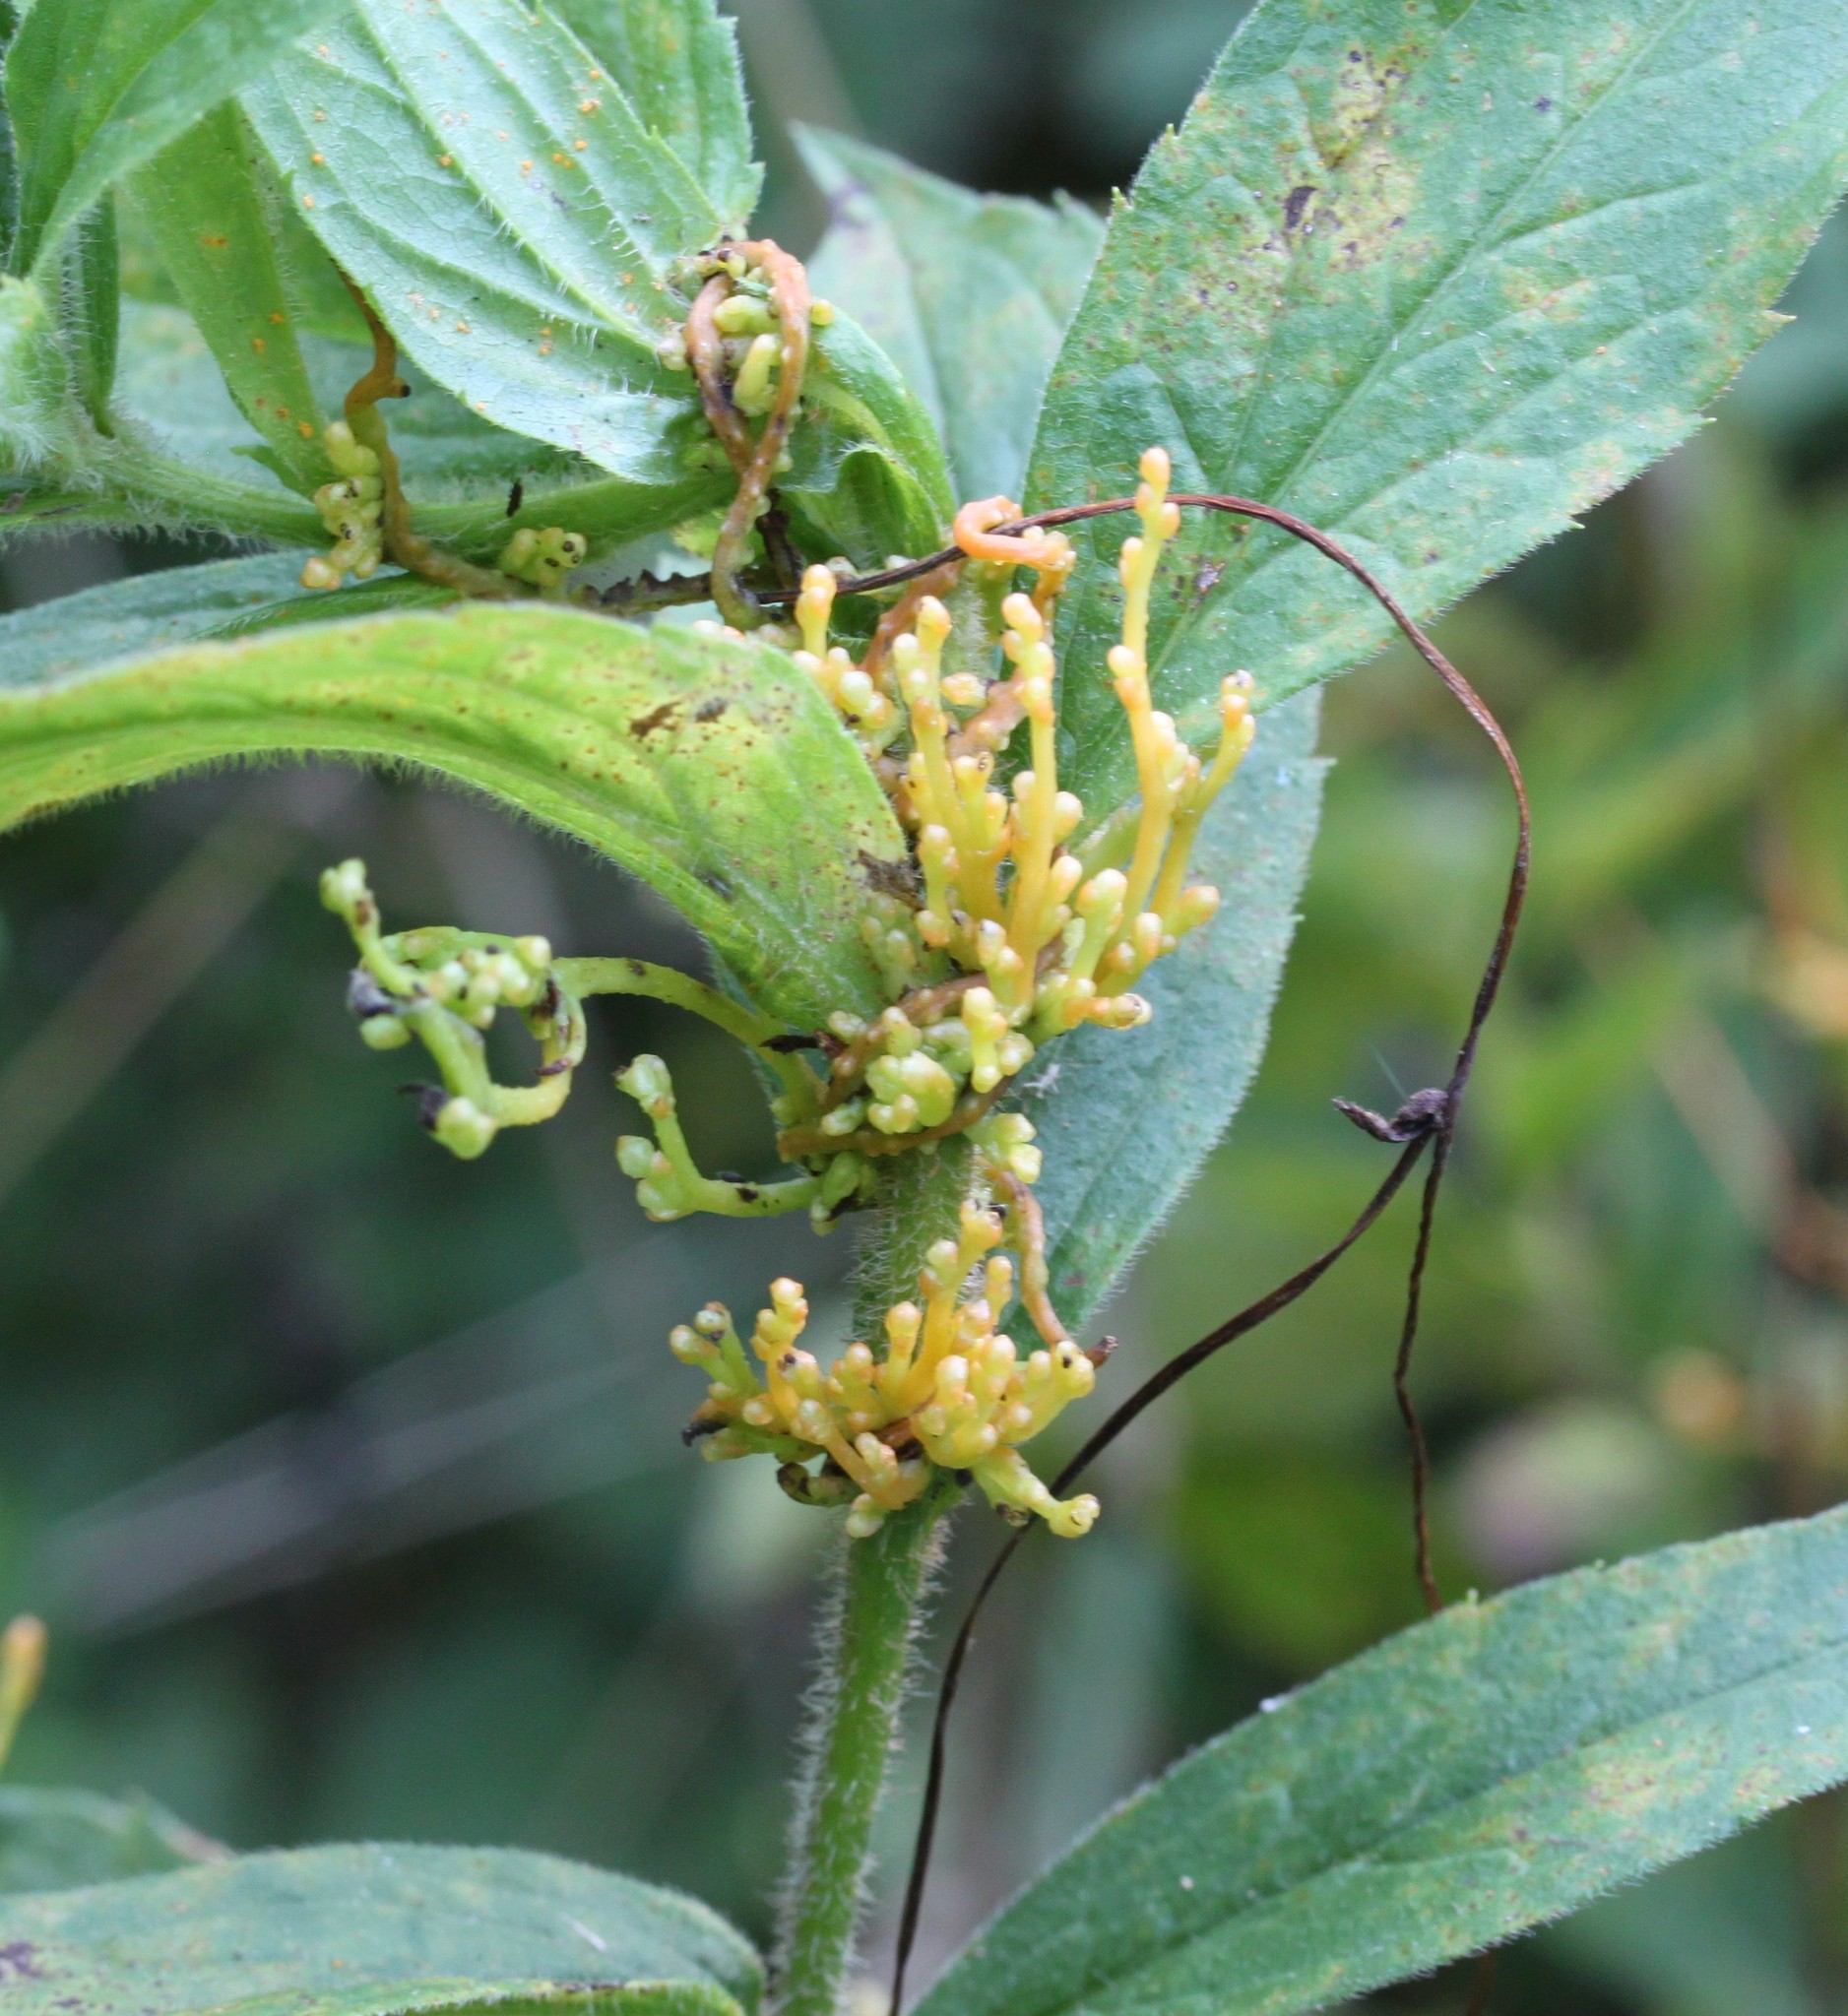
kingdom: Plantae
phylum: Tracheophyta
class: Magnoliopsida
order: Solanales
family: Convolvulaceae
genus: Cuscuta
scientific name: Cuscuta
